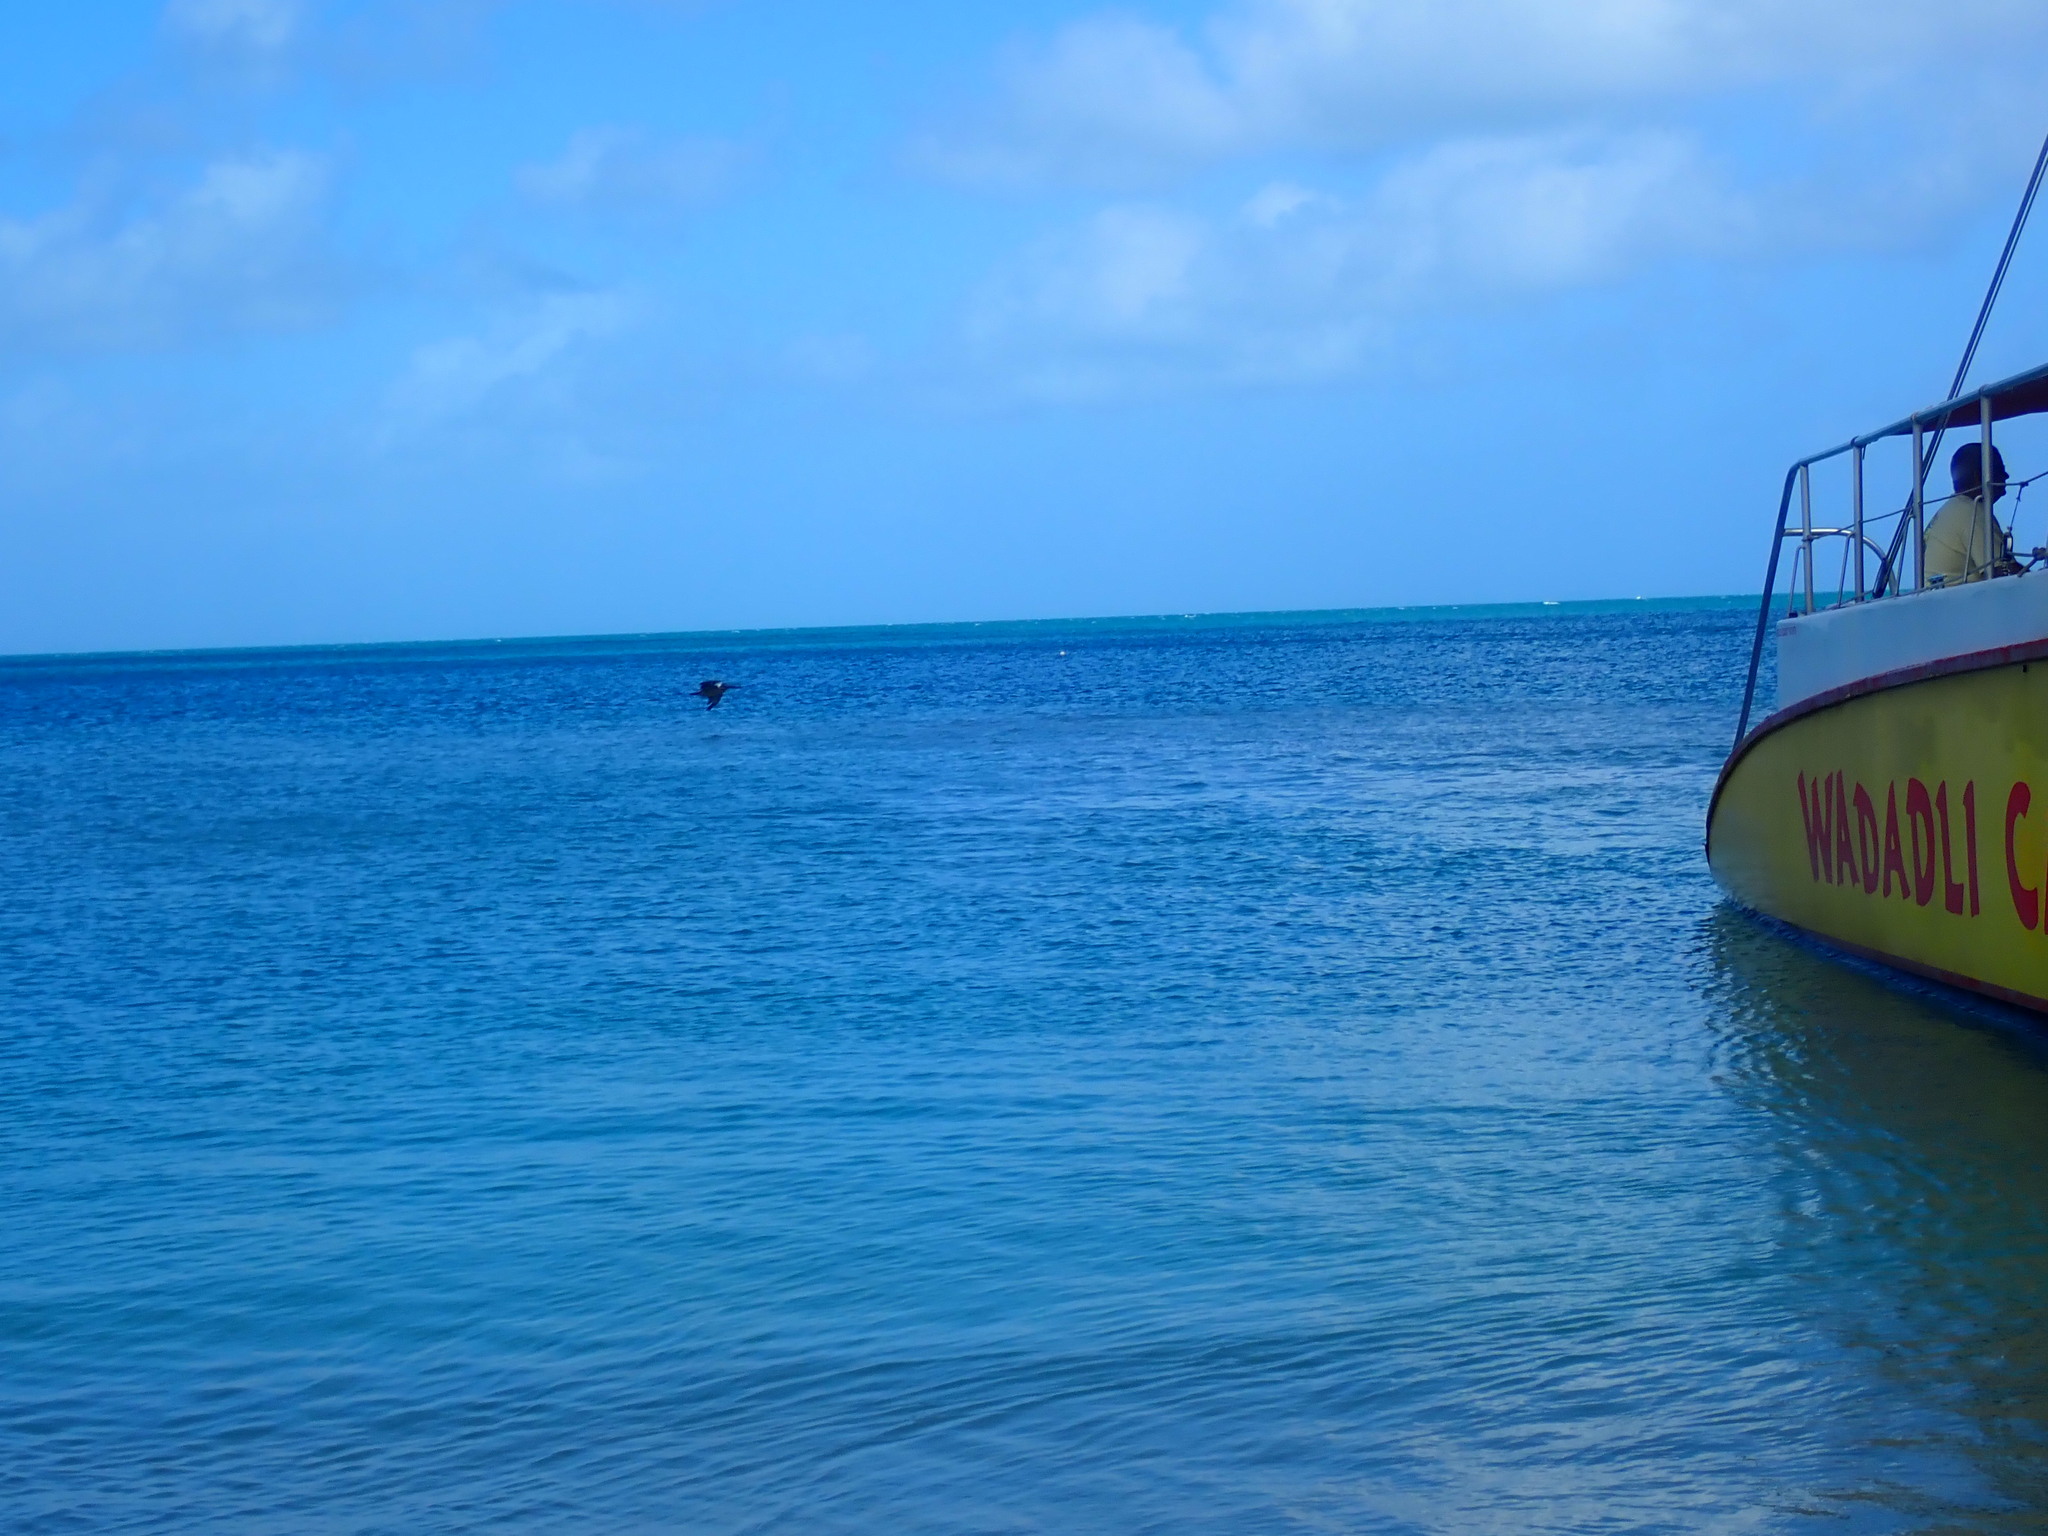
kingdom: Animalia
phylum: Chordata
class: Aves
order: Pelecaniformes
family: Pelecanidae
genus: Pelecanus
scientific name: Pelecanus occidentalis
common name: Brown pelican
